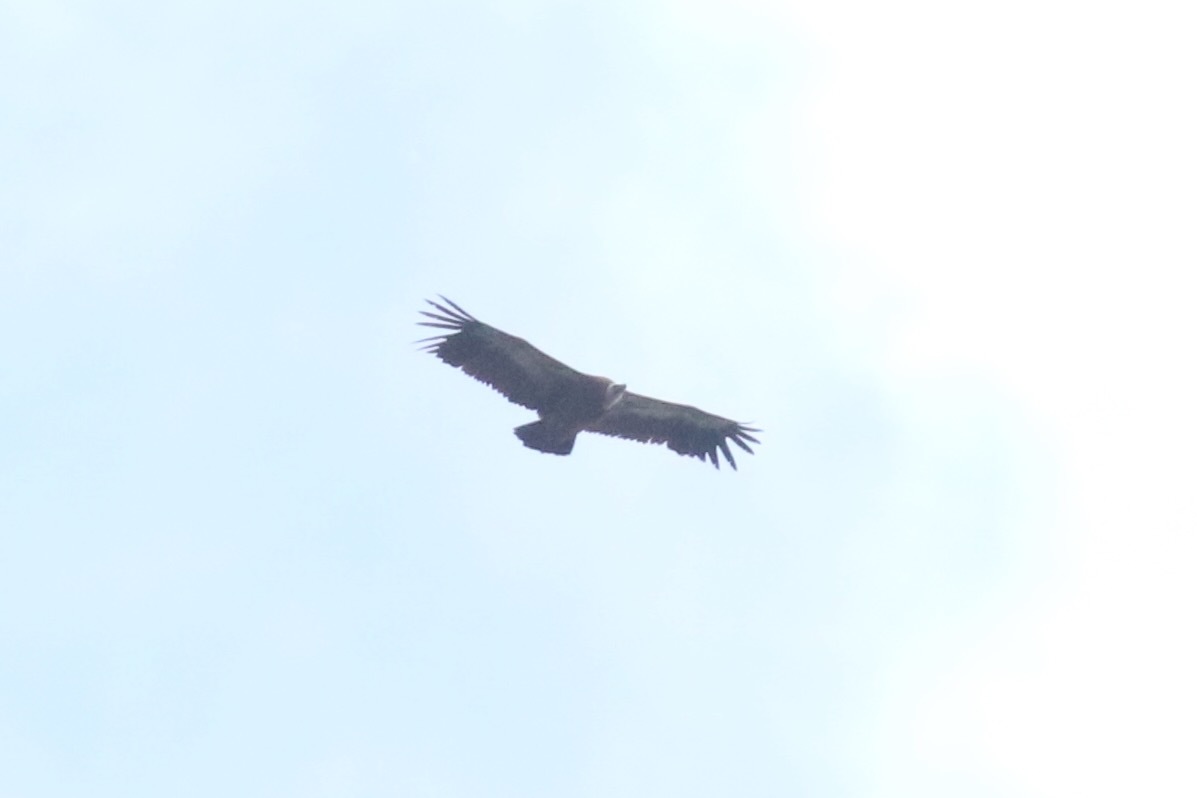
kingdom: Animalia
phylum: Chordata
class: Aves
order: Accipitriformes
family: Accipitridae
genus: Gyps
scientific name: Gyps fulvus
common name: Griffon vulture
